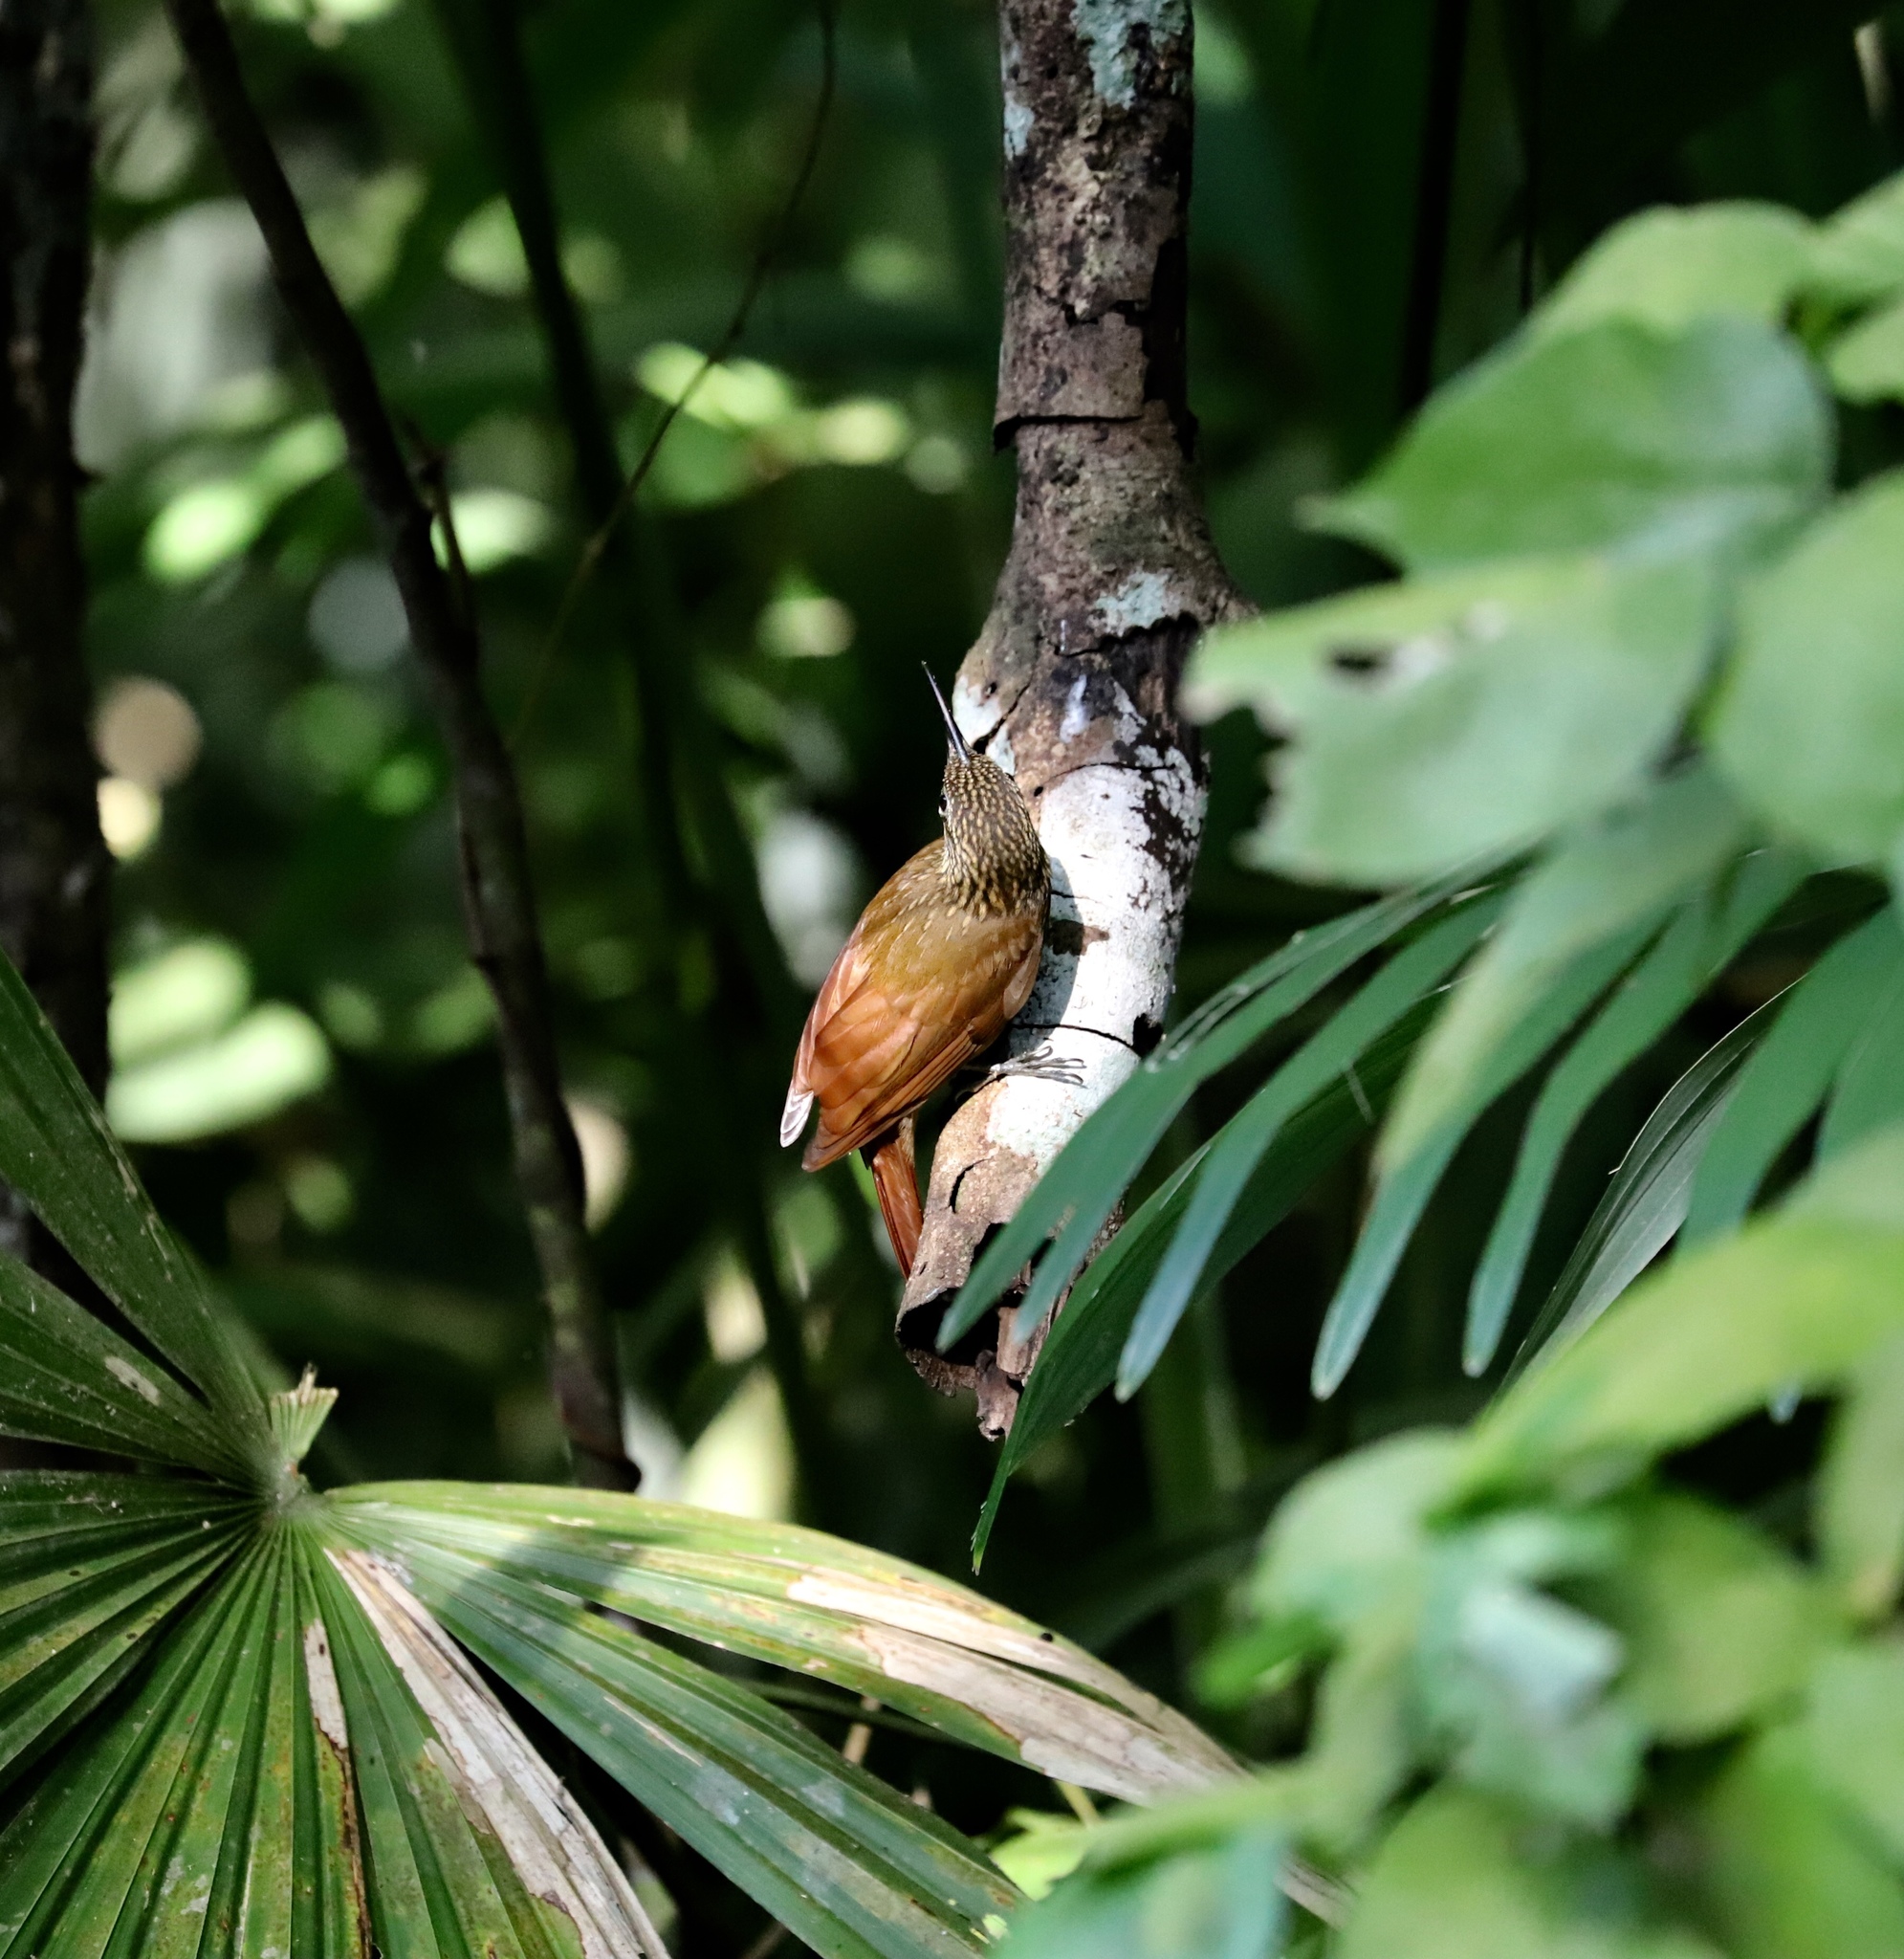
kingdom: Animalia
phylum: Chordata
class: Aves
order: Passeriformes
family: Furnariidae
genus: Xiphorhynchus
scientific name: Xiphorhynchus susurrans
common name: Cocoa woodcreeper
